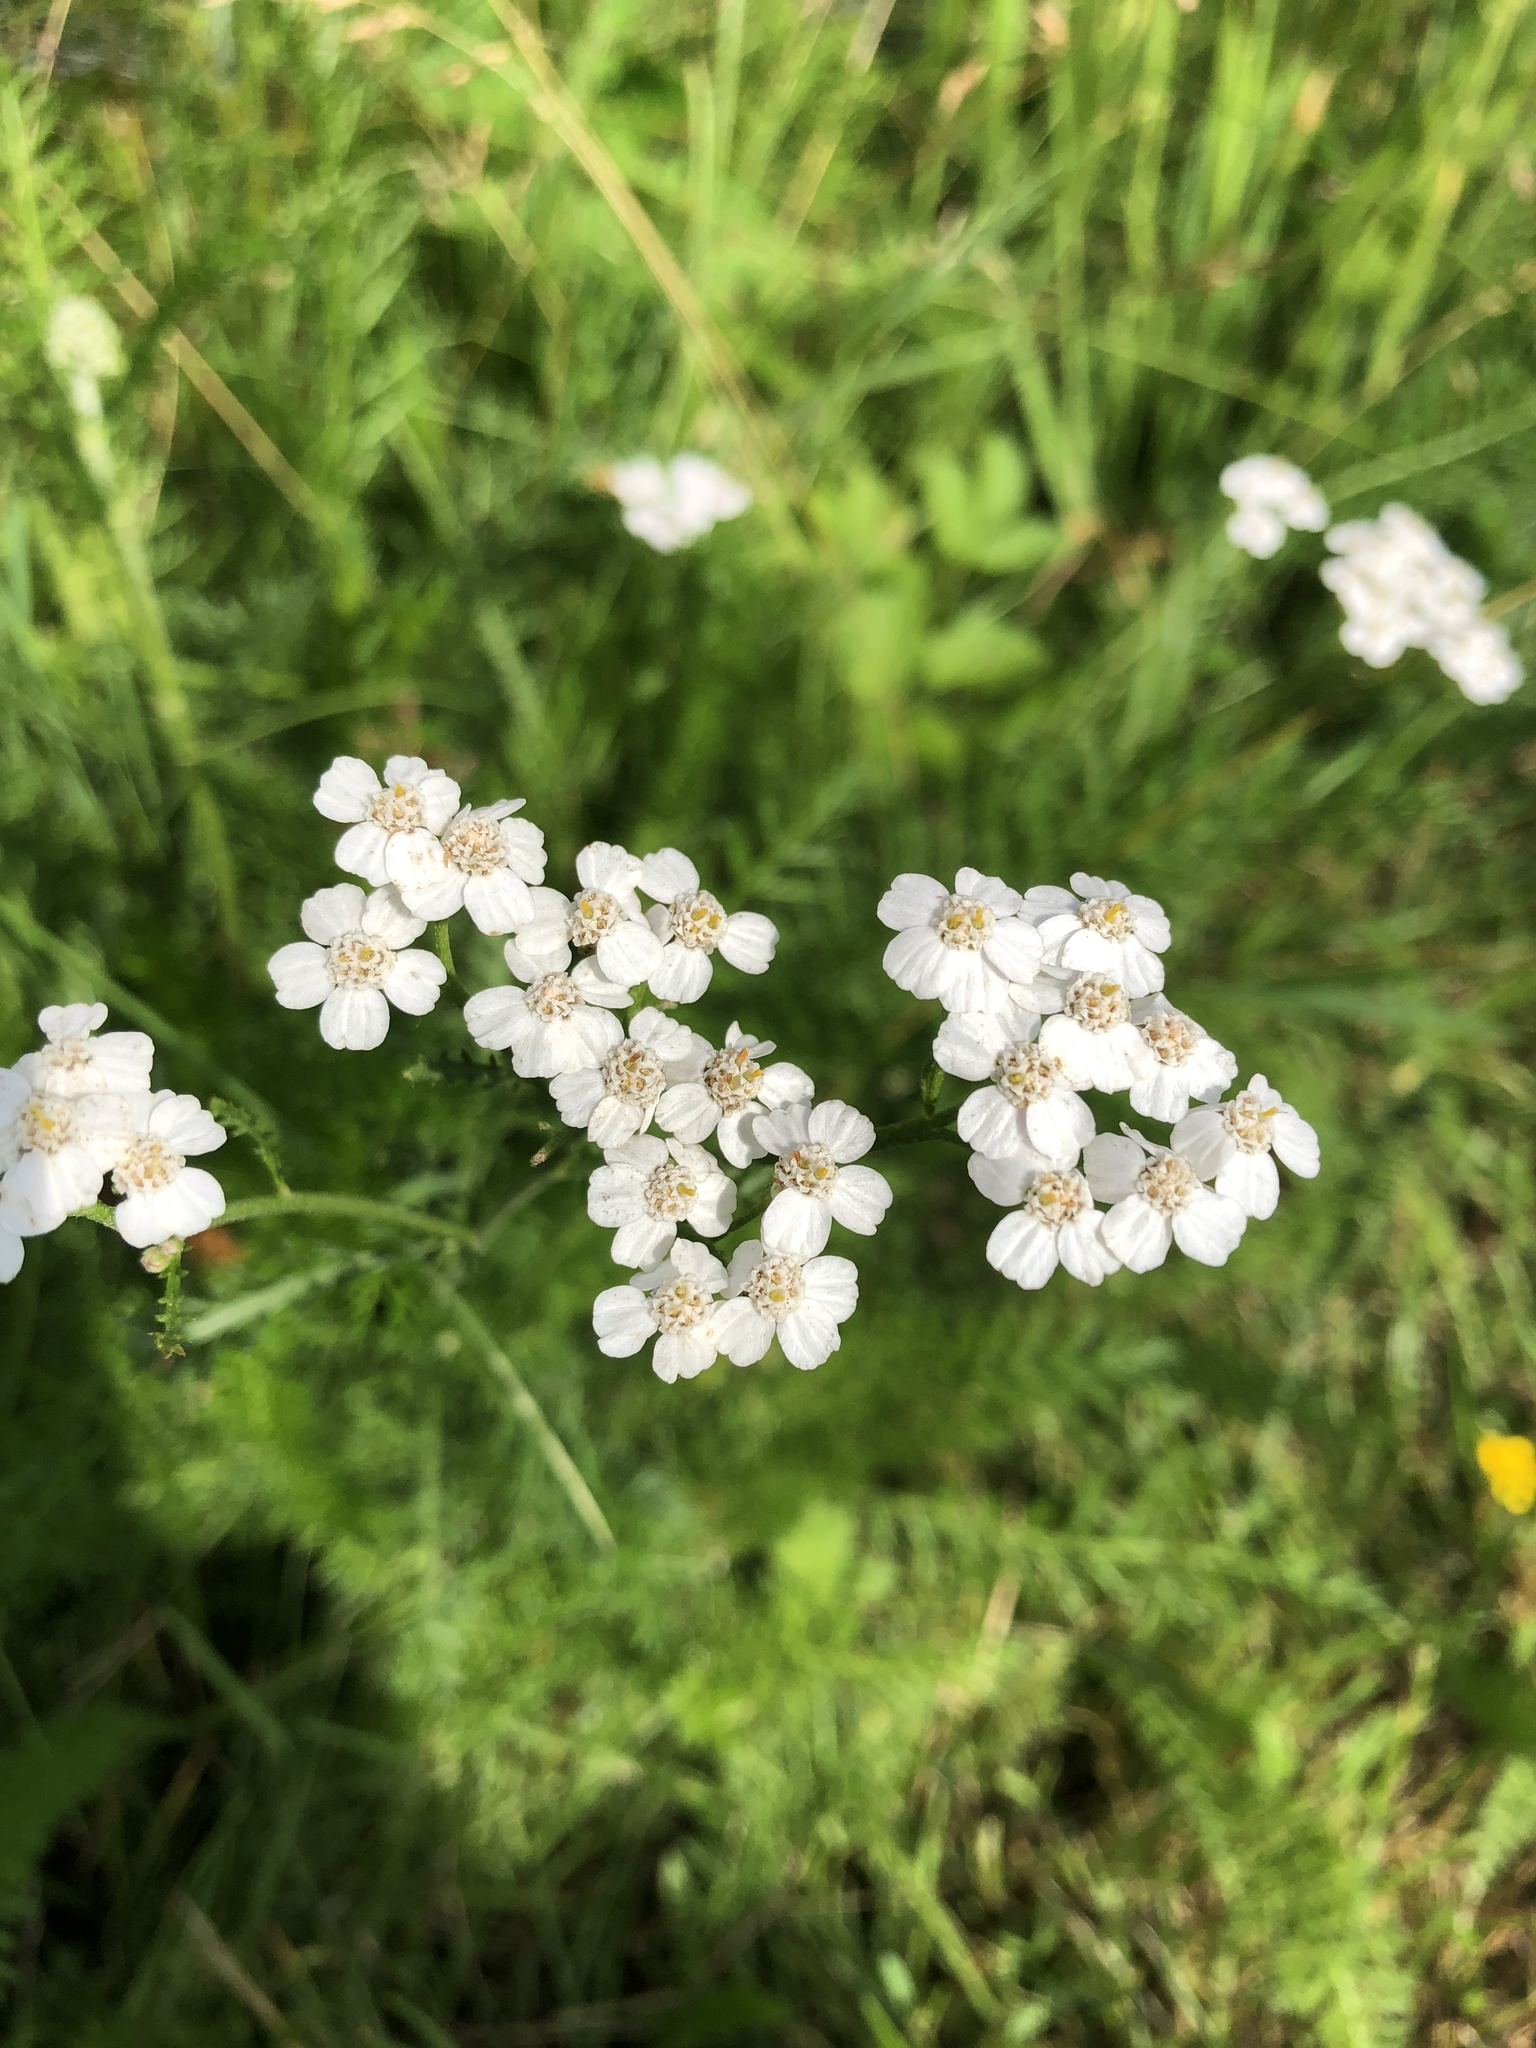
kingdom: Plantae
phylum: Tracheophyta
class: Magnoliopsida
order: Asterales
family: Asteraceae
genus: Achillea
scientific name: Achillea millefolium
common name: Yarrow
